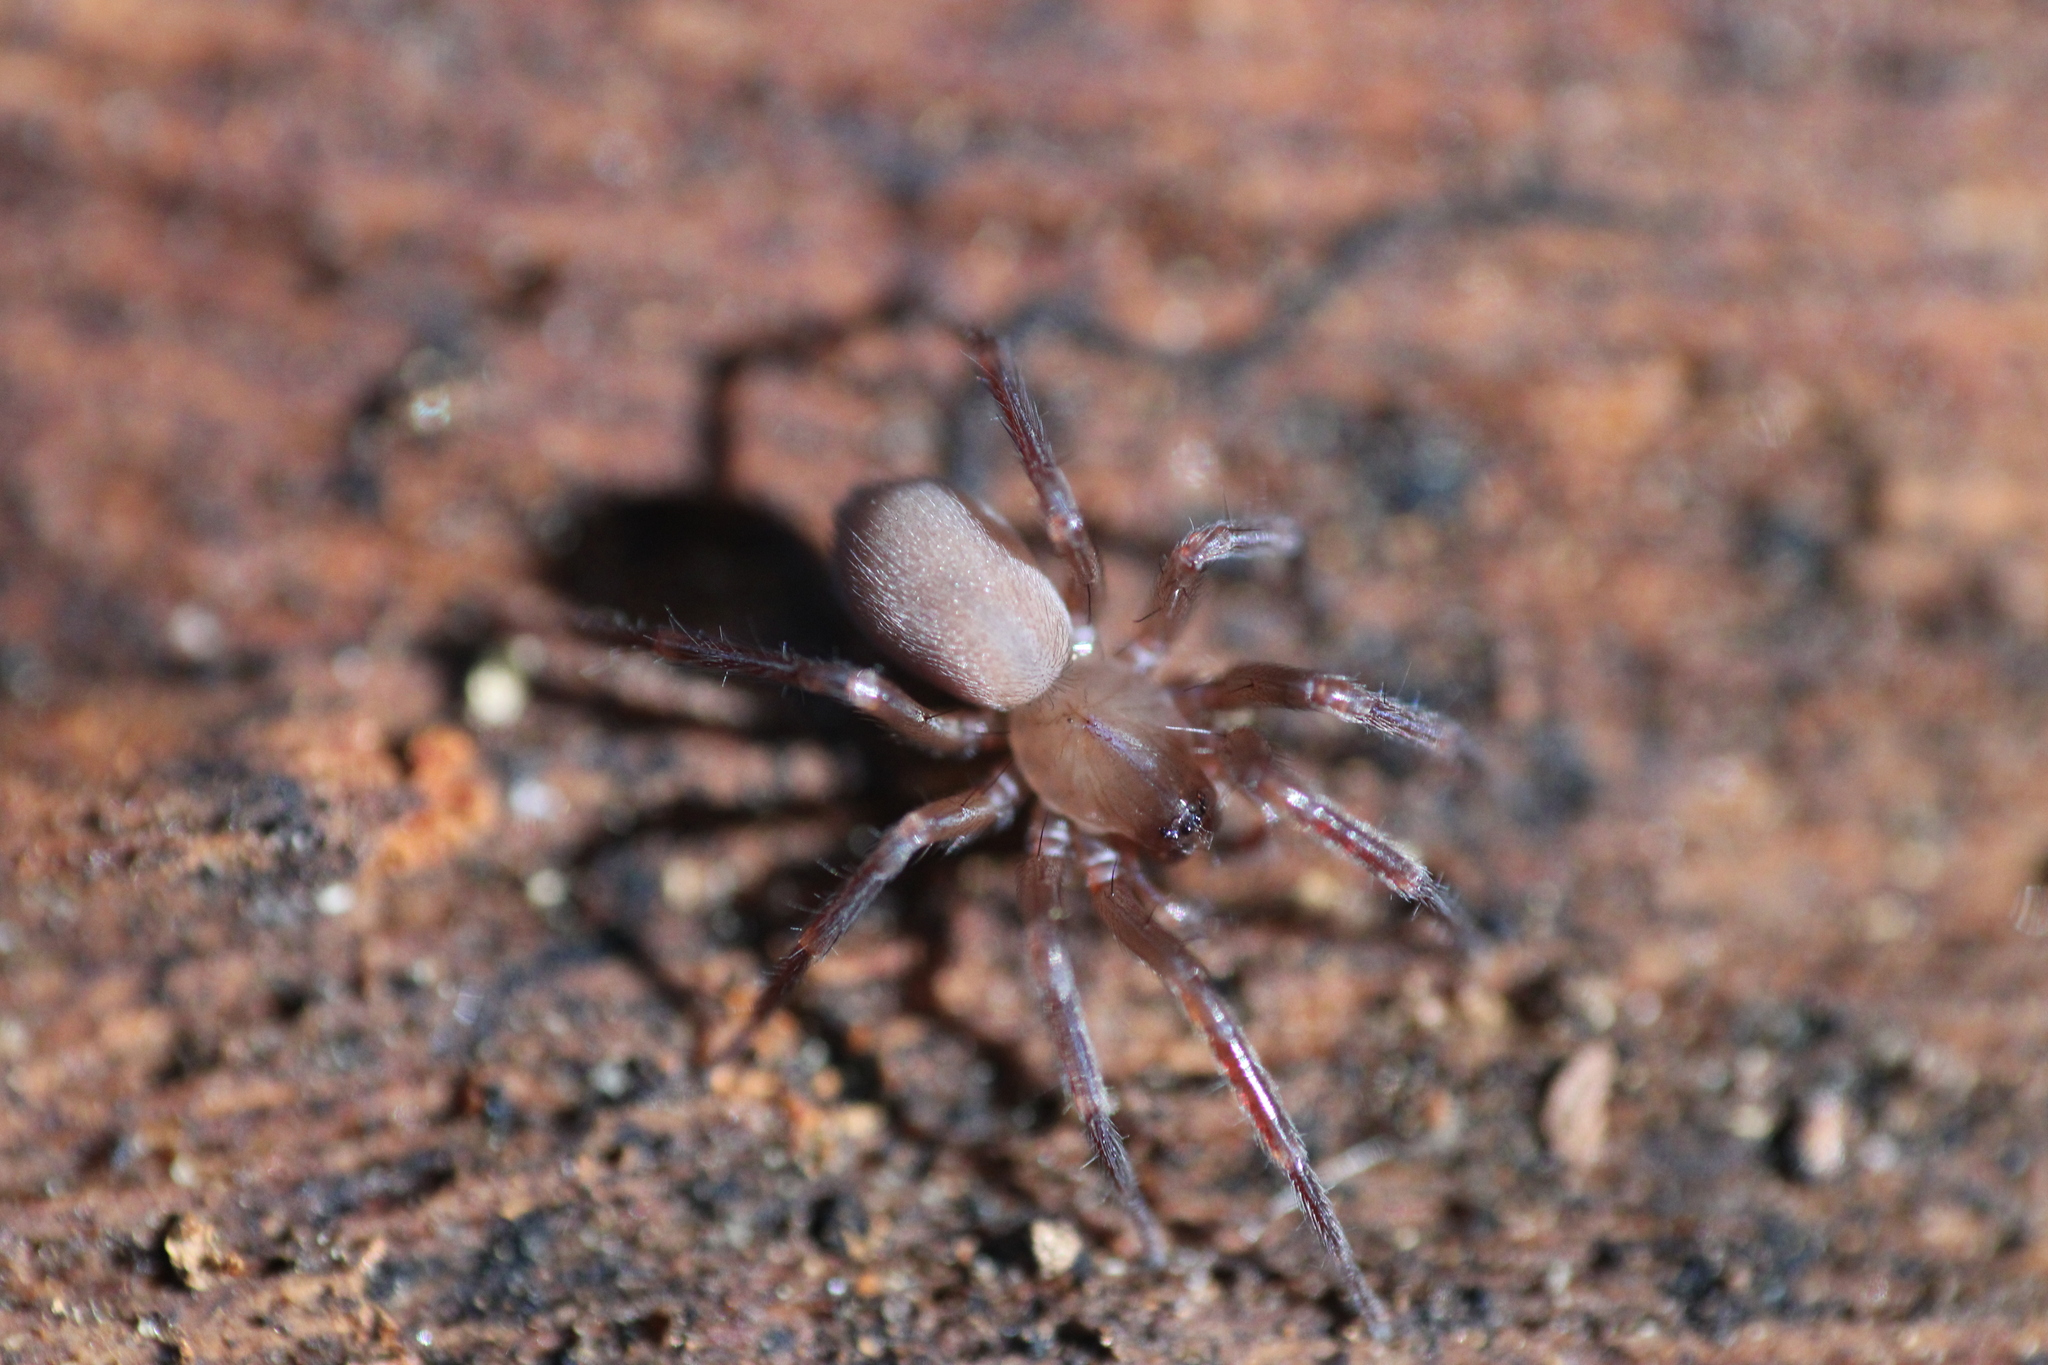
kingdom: Animalia
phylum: Arthropoda
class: Arachnida
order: Araneae
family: Hahniidae
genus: Cicurina
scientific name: Cicurina cicur
